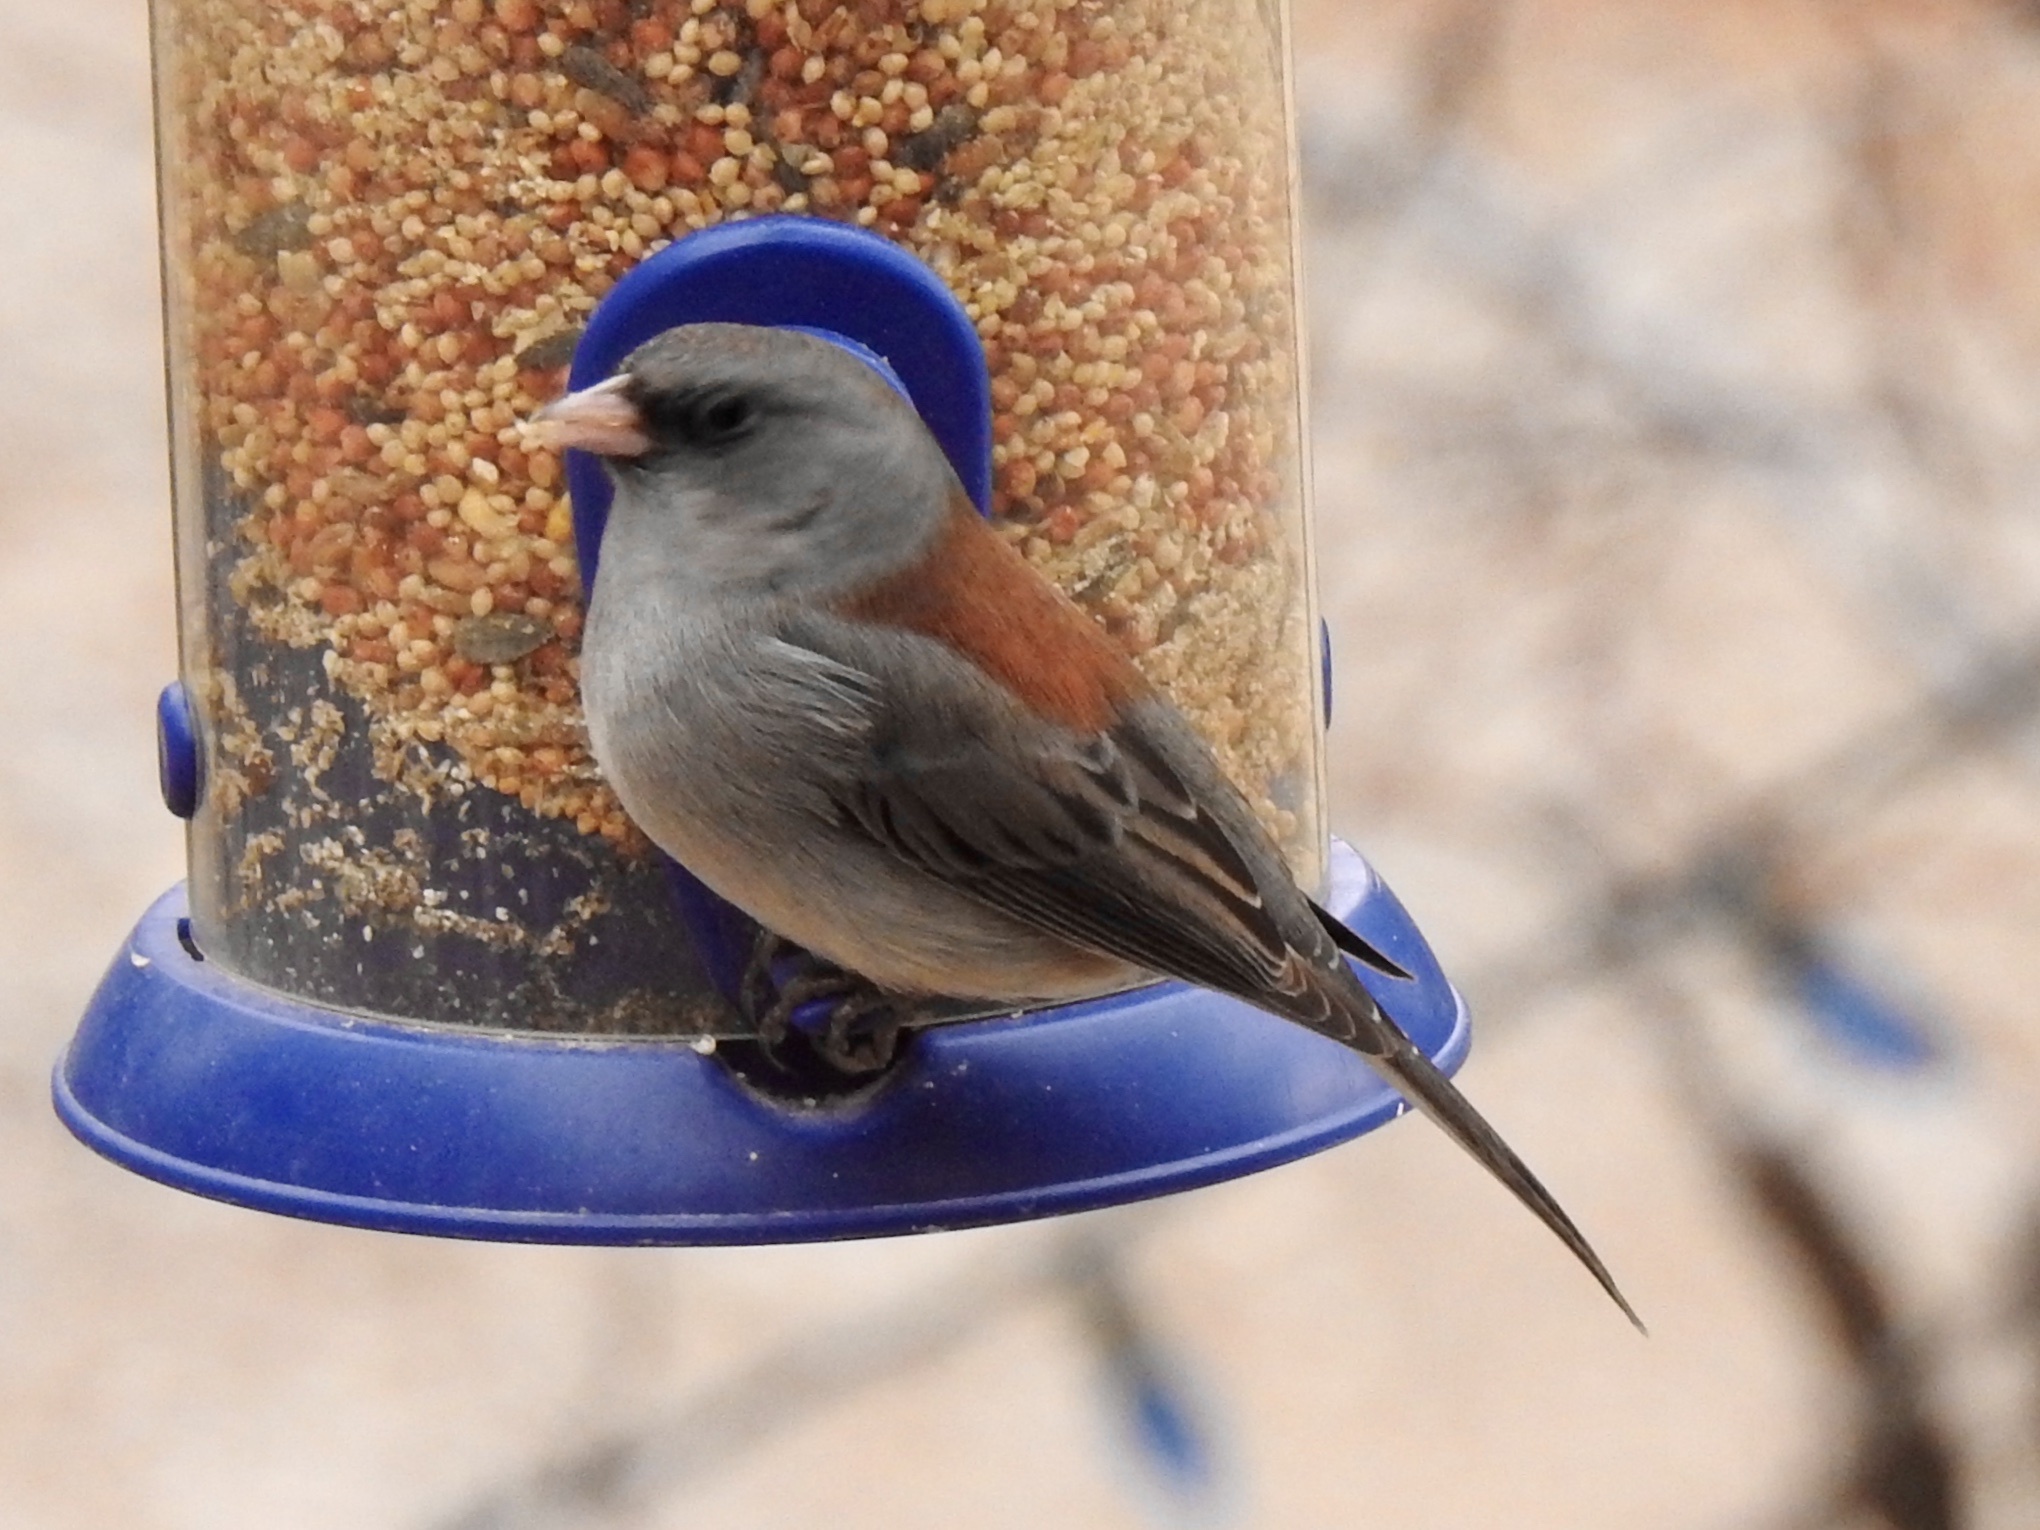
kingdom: Animalia
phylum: Chordata
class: Aves
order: Passeriformes
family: Passerellidae
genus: Junco
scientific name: Junco hyemalis
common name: Dark-eyed junco
